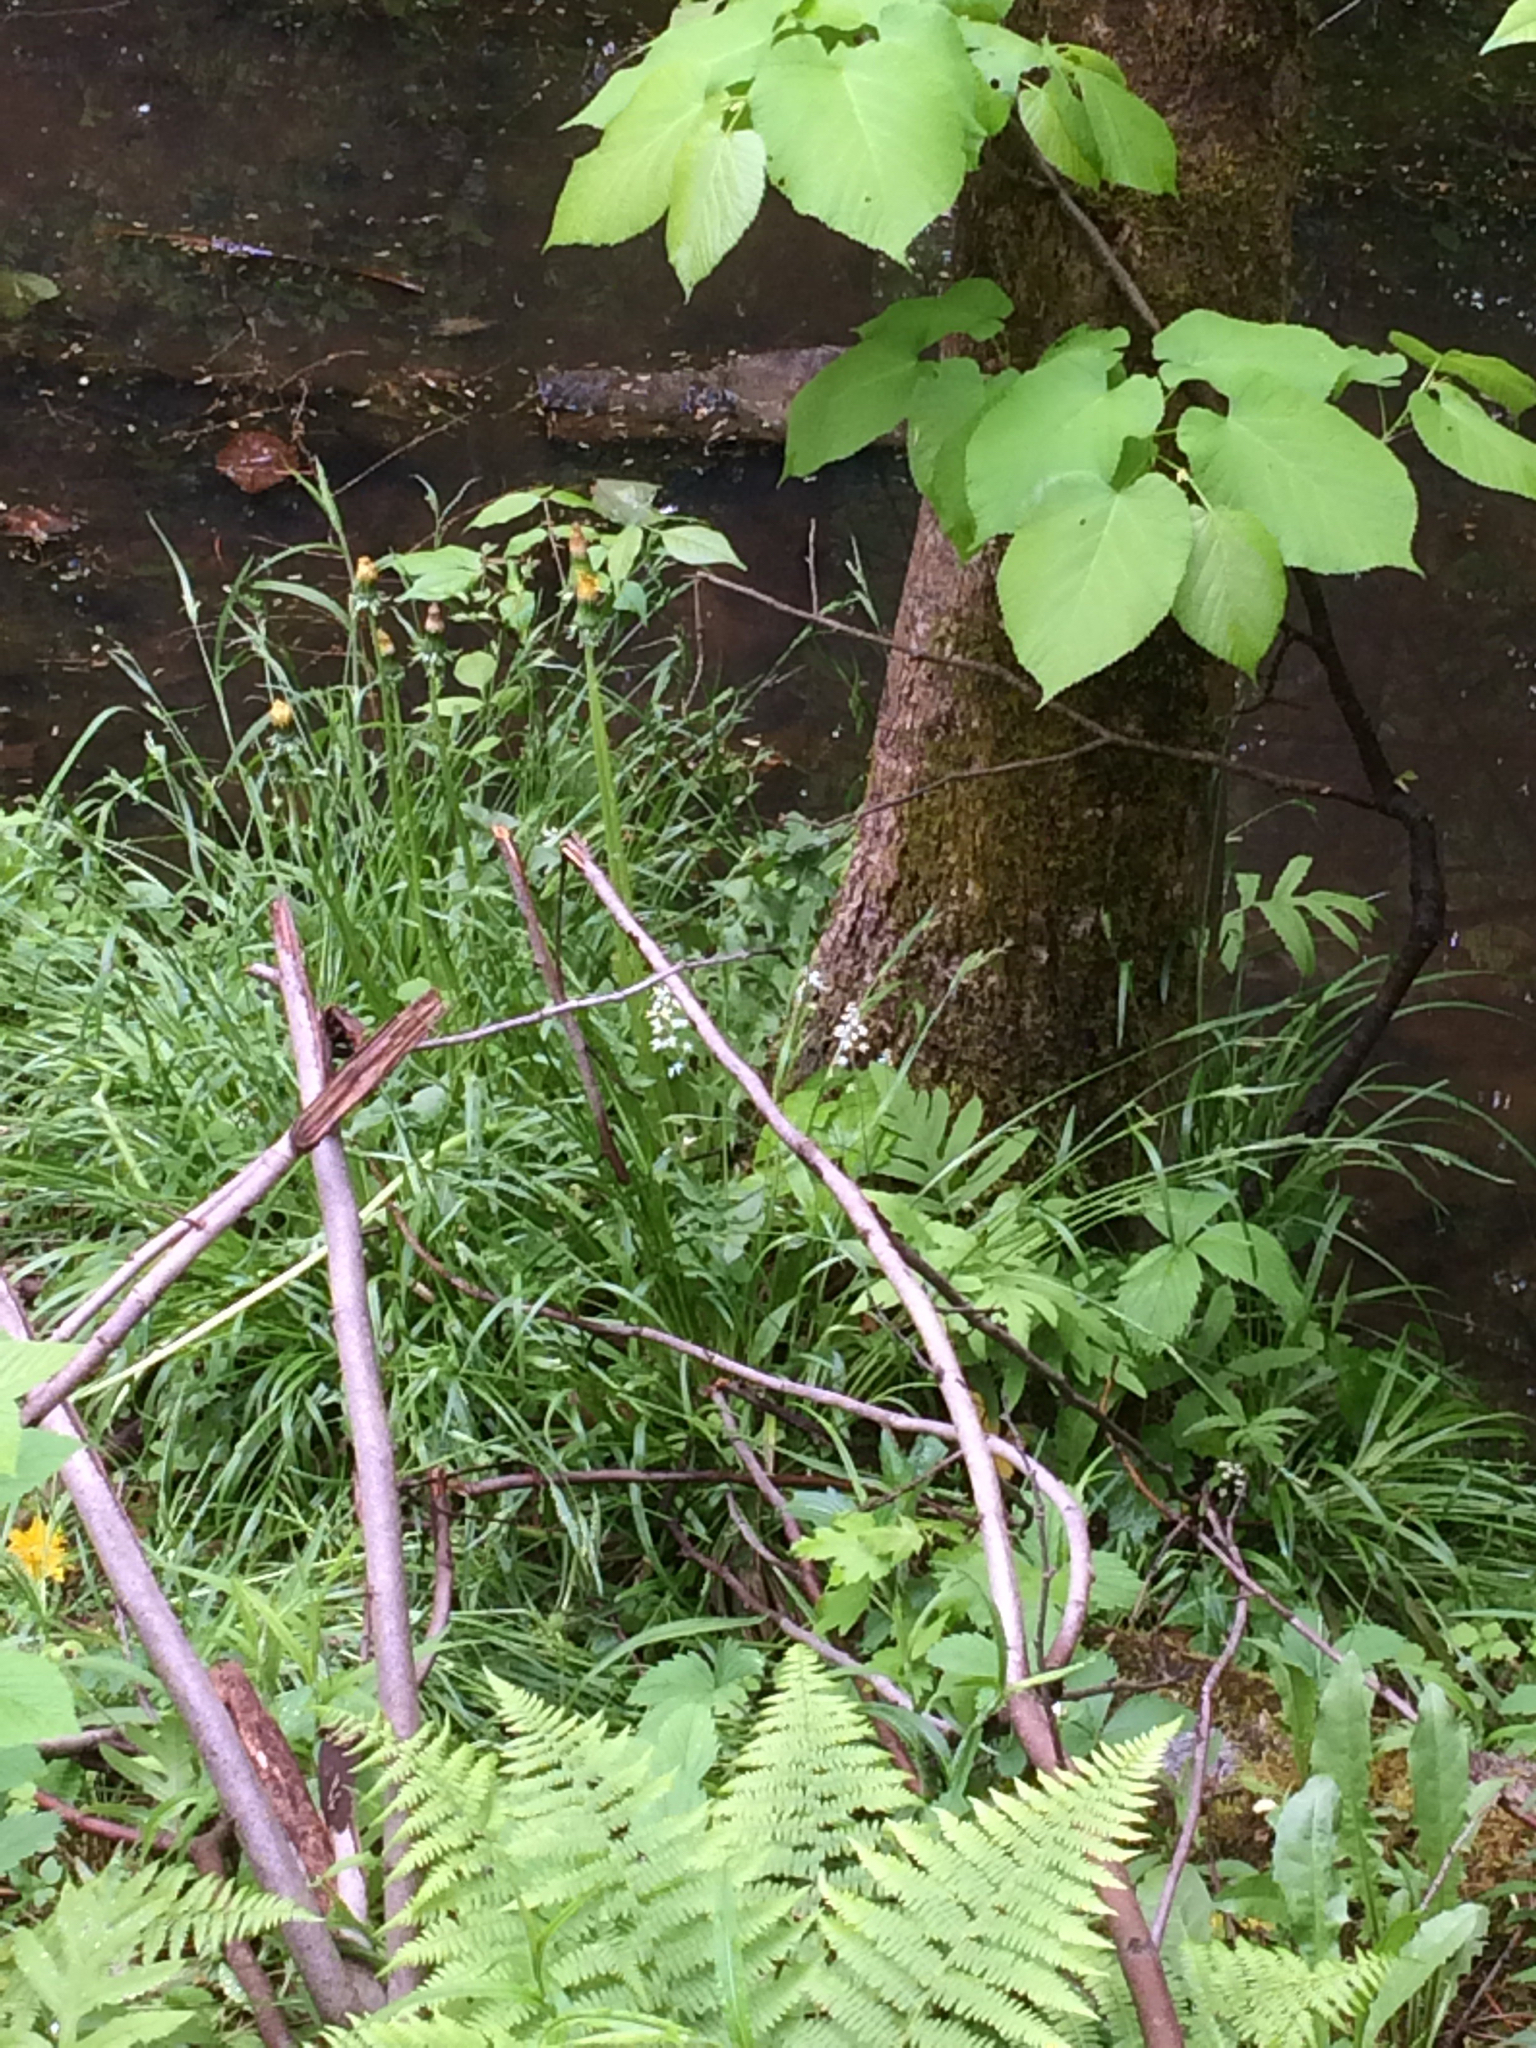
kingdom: Plantae
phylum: Tracheophyta
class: Magnoliopsida
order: Malvales
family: Malvaceae
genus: Tilia
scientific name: Tilia americana
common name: Basswood
